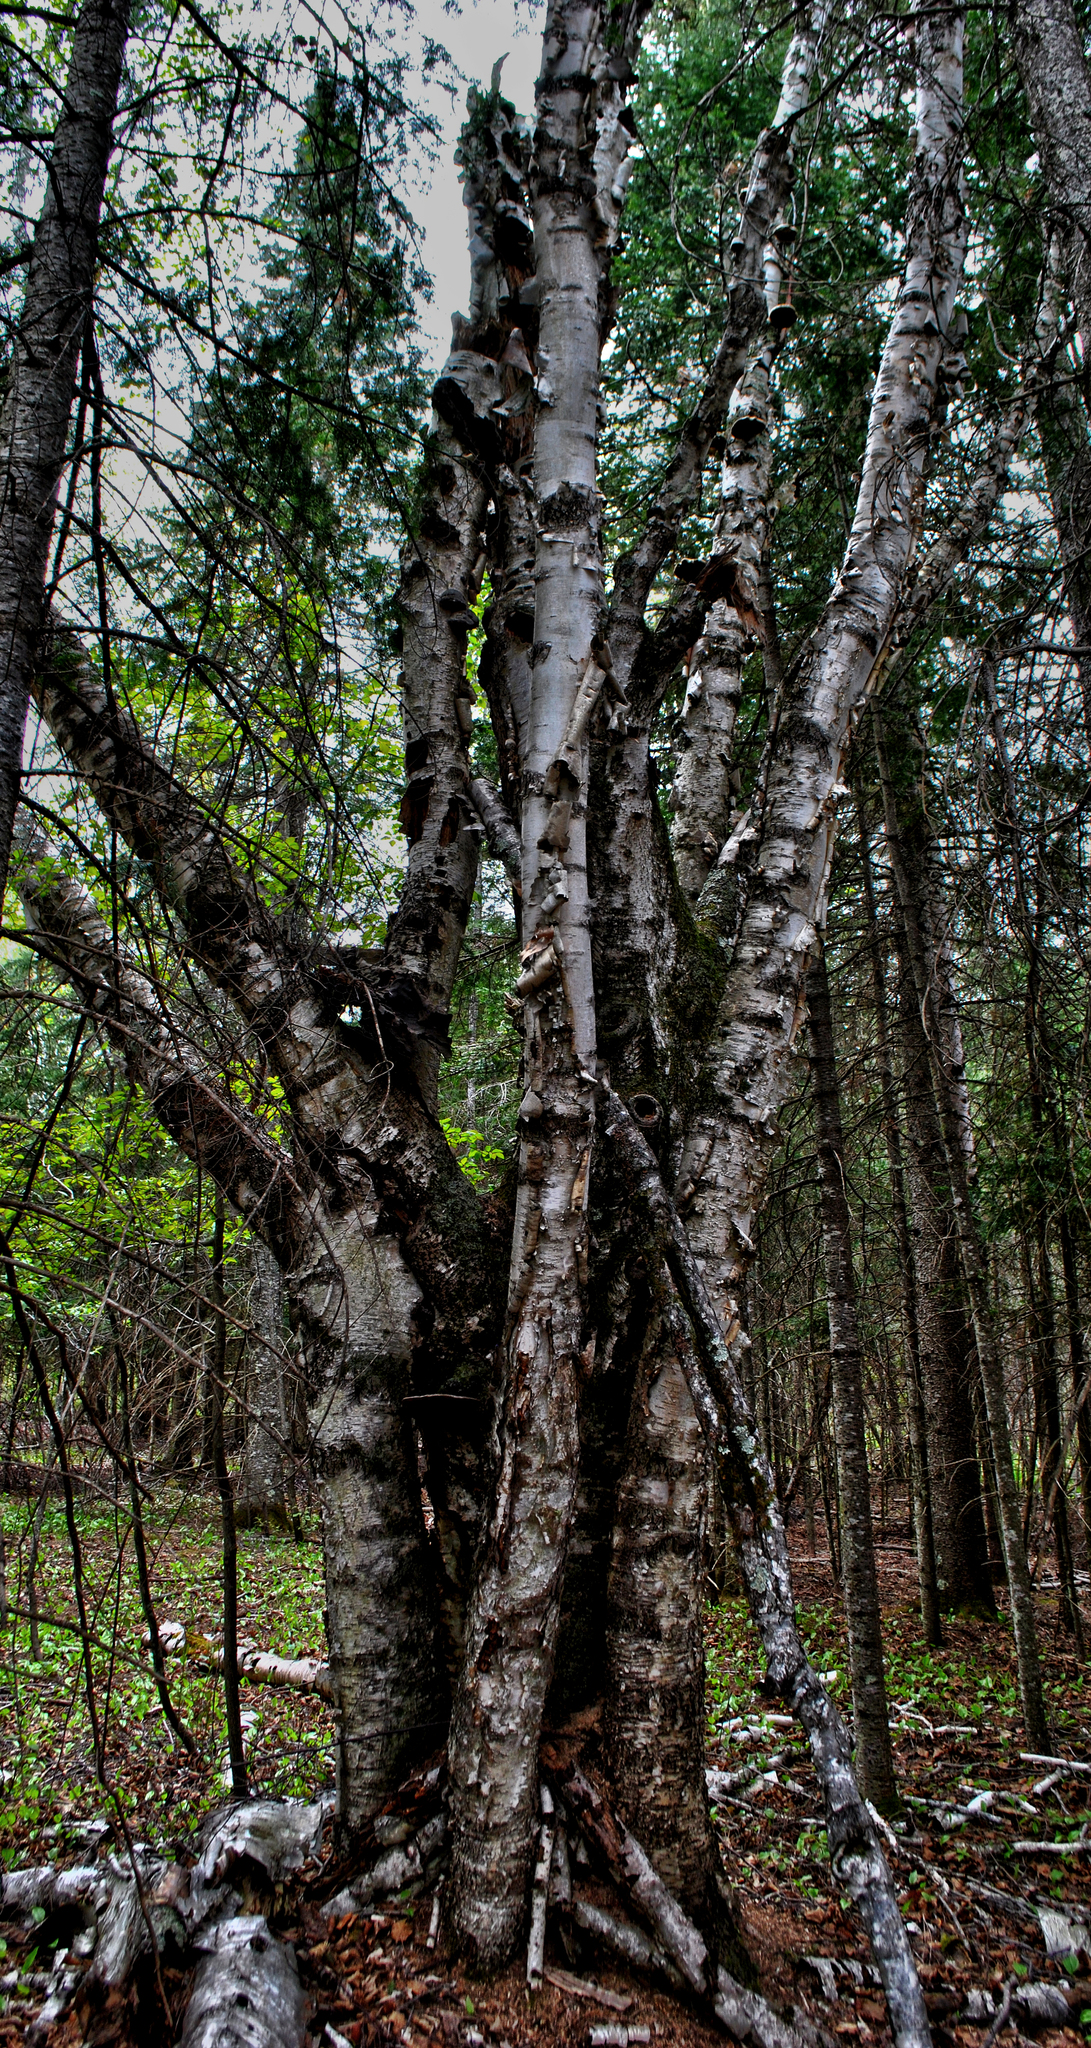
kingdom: Plantae
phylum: Tracheophyta
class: Magnoliopsida
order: Fagales
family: Betulaceae
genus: Betula
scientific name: Betula papyrifera
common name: Paper birch
